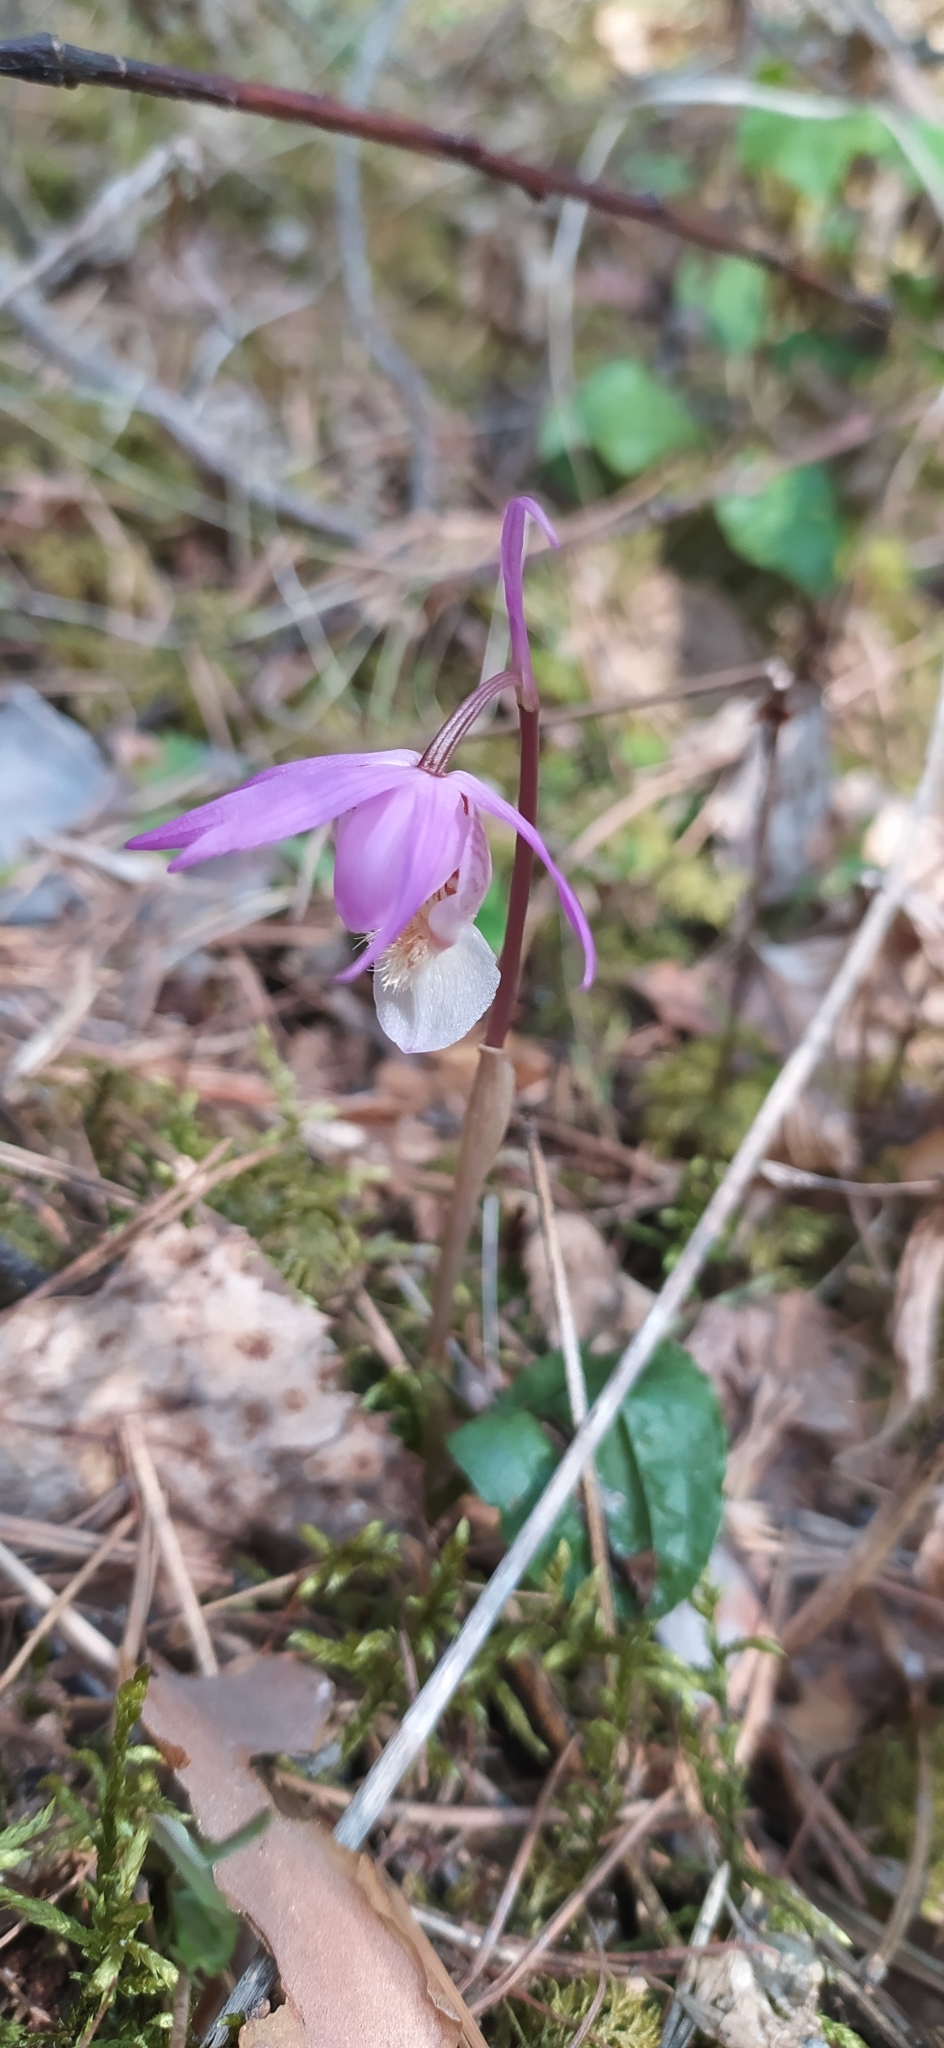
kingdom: Plantae
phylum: Tracheophyta
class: Liliopsida
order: Asparagales
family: Orchidaceae
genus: Calypso
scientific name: Calypso bulbosa
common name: Calypso
